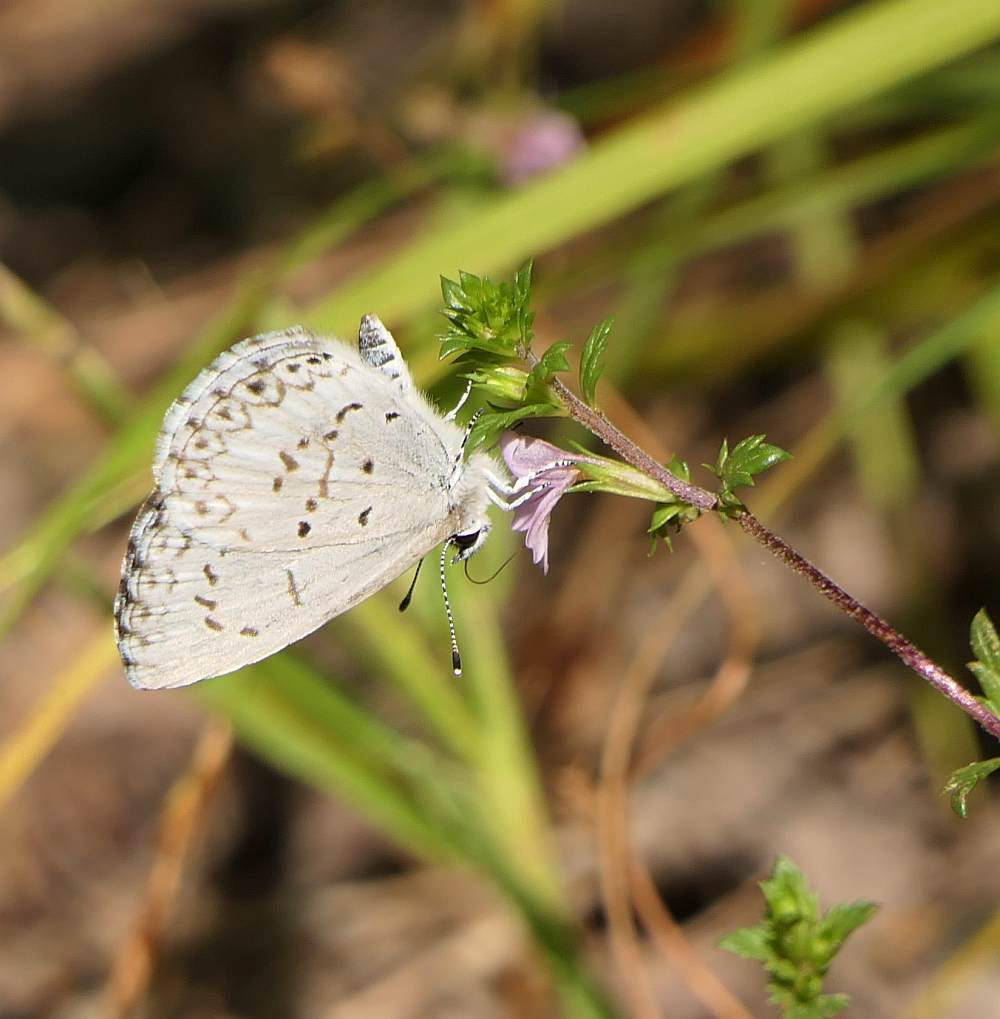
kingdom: Animalia
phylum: Arthropoda
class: Insecta
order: Lepidoptera
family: Lycaenidae
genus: Celastrina
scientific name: Celastrina lucia
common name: Lucia azure
